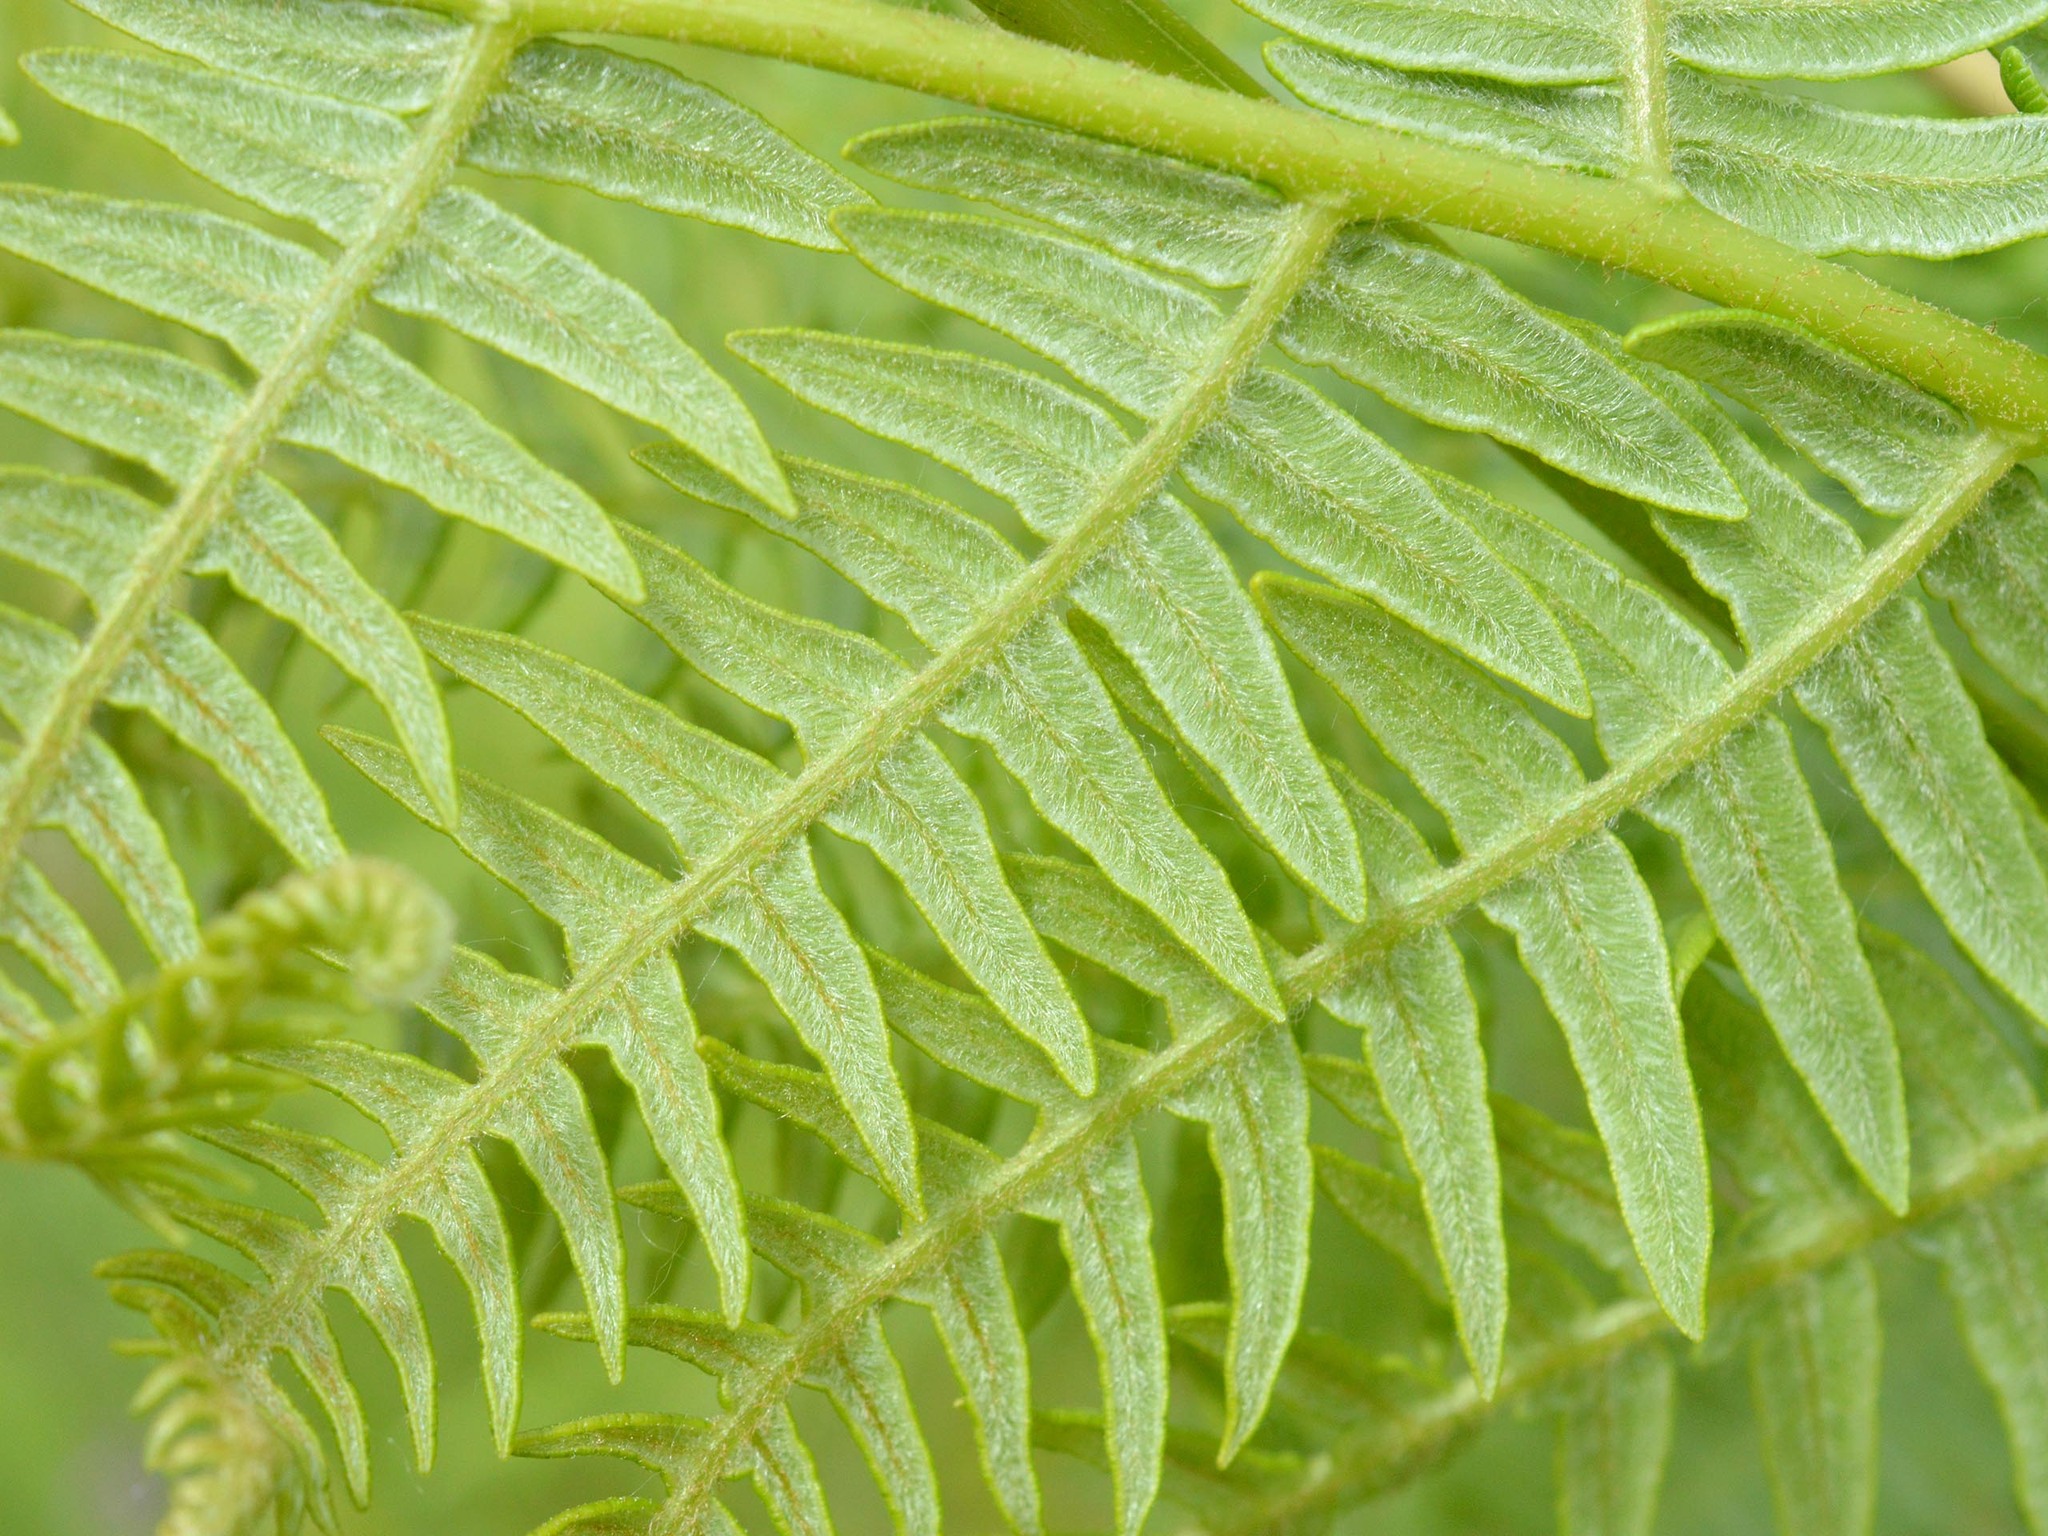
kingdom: Plantae
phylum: Tracheophyta
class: Polypodiopsida
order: Polypodiales
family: Dennstaedtiaceae
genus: Pteridium
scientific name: Pteridium aquilinum
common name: Bracken
